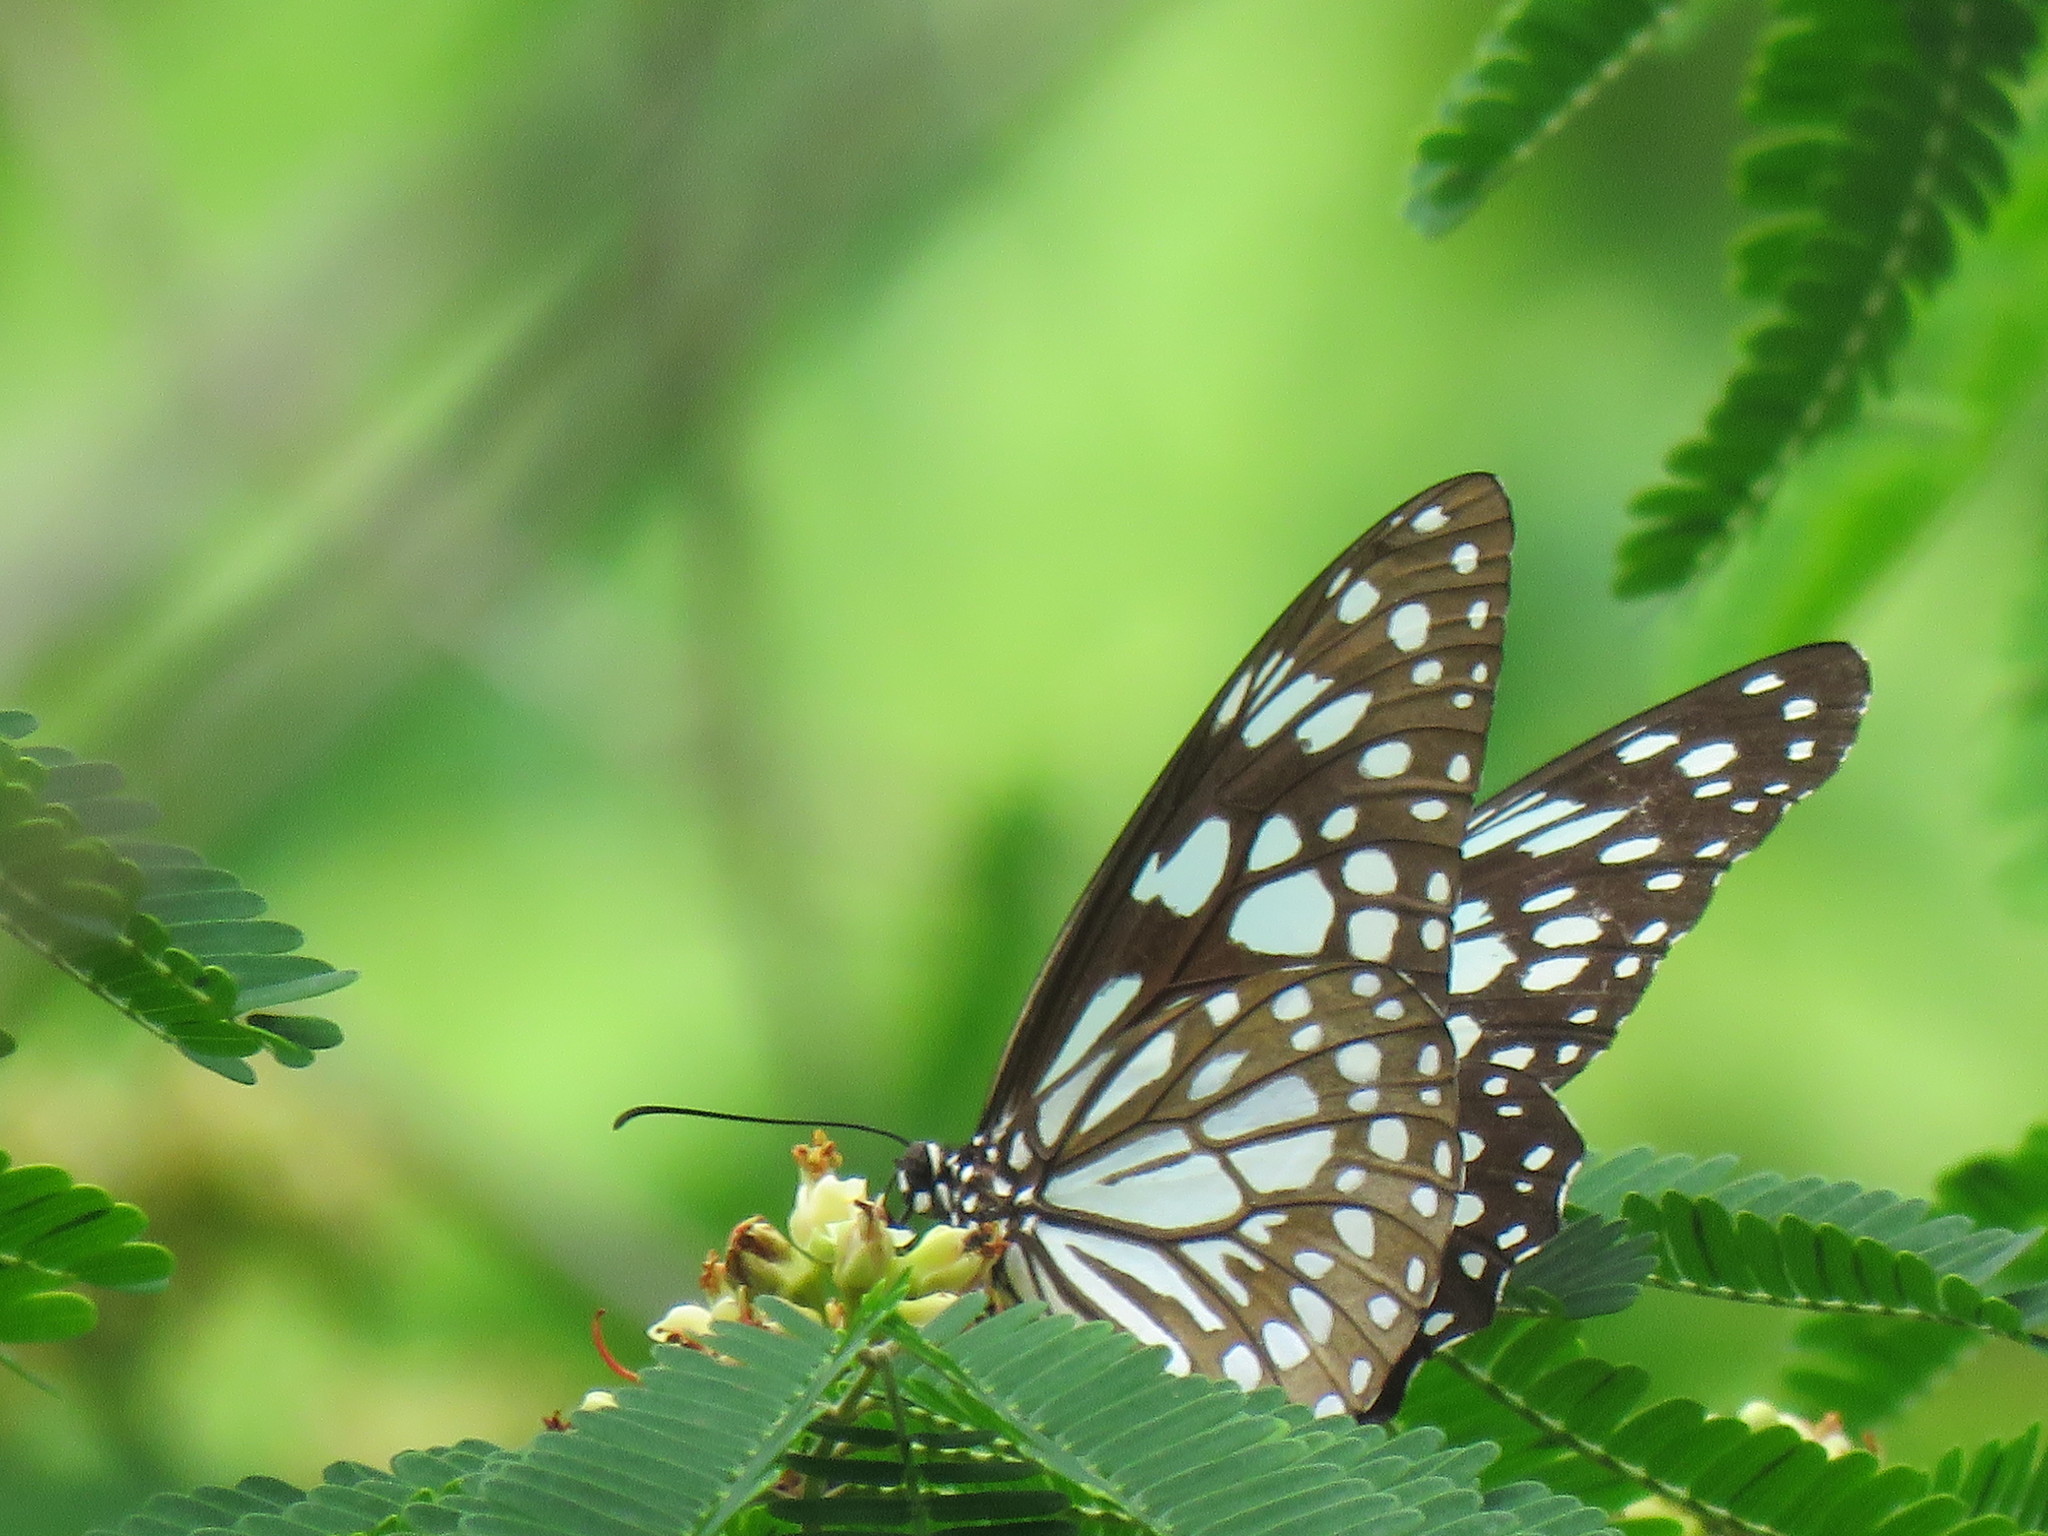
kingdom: Animalia
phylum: Arthropoda
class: Insecta
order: Lepidoptera
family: Nymphalidae
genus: Tirumala
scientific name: Tirumala limniace
